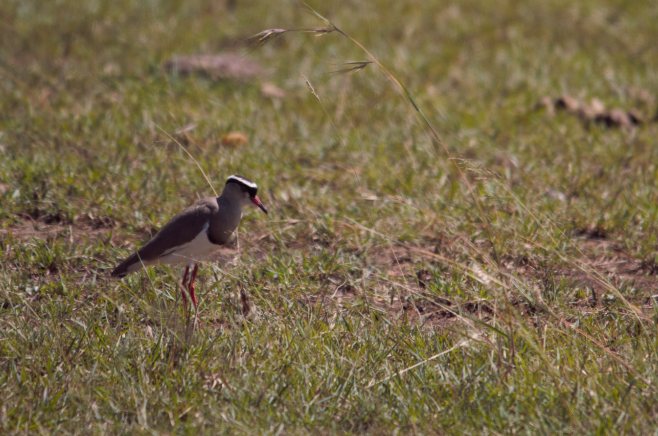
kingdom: Animalia
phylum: Chordata
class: Aves
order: Charadriiformes
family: Charadriidae
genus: Vanellus
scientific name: Vanellus coronatus
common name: Crowned lapwing
